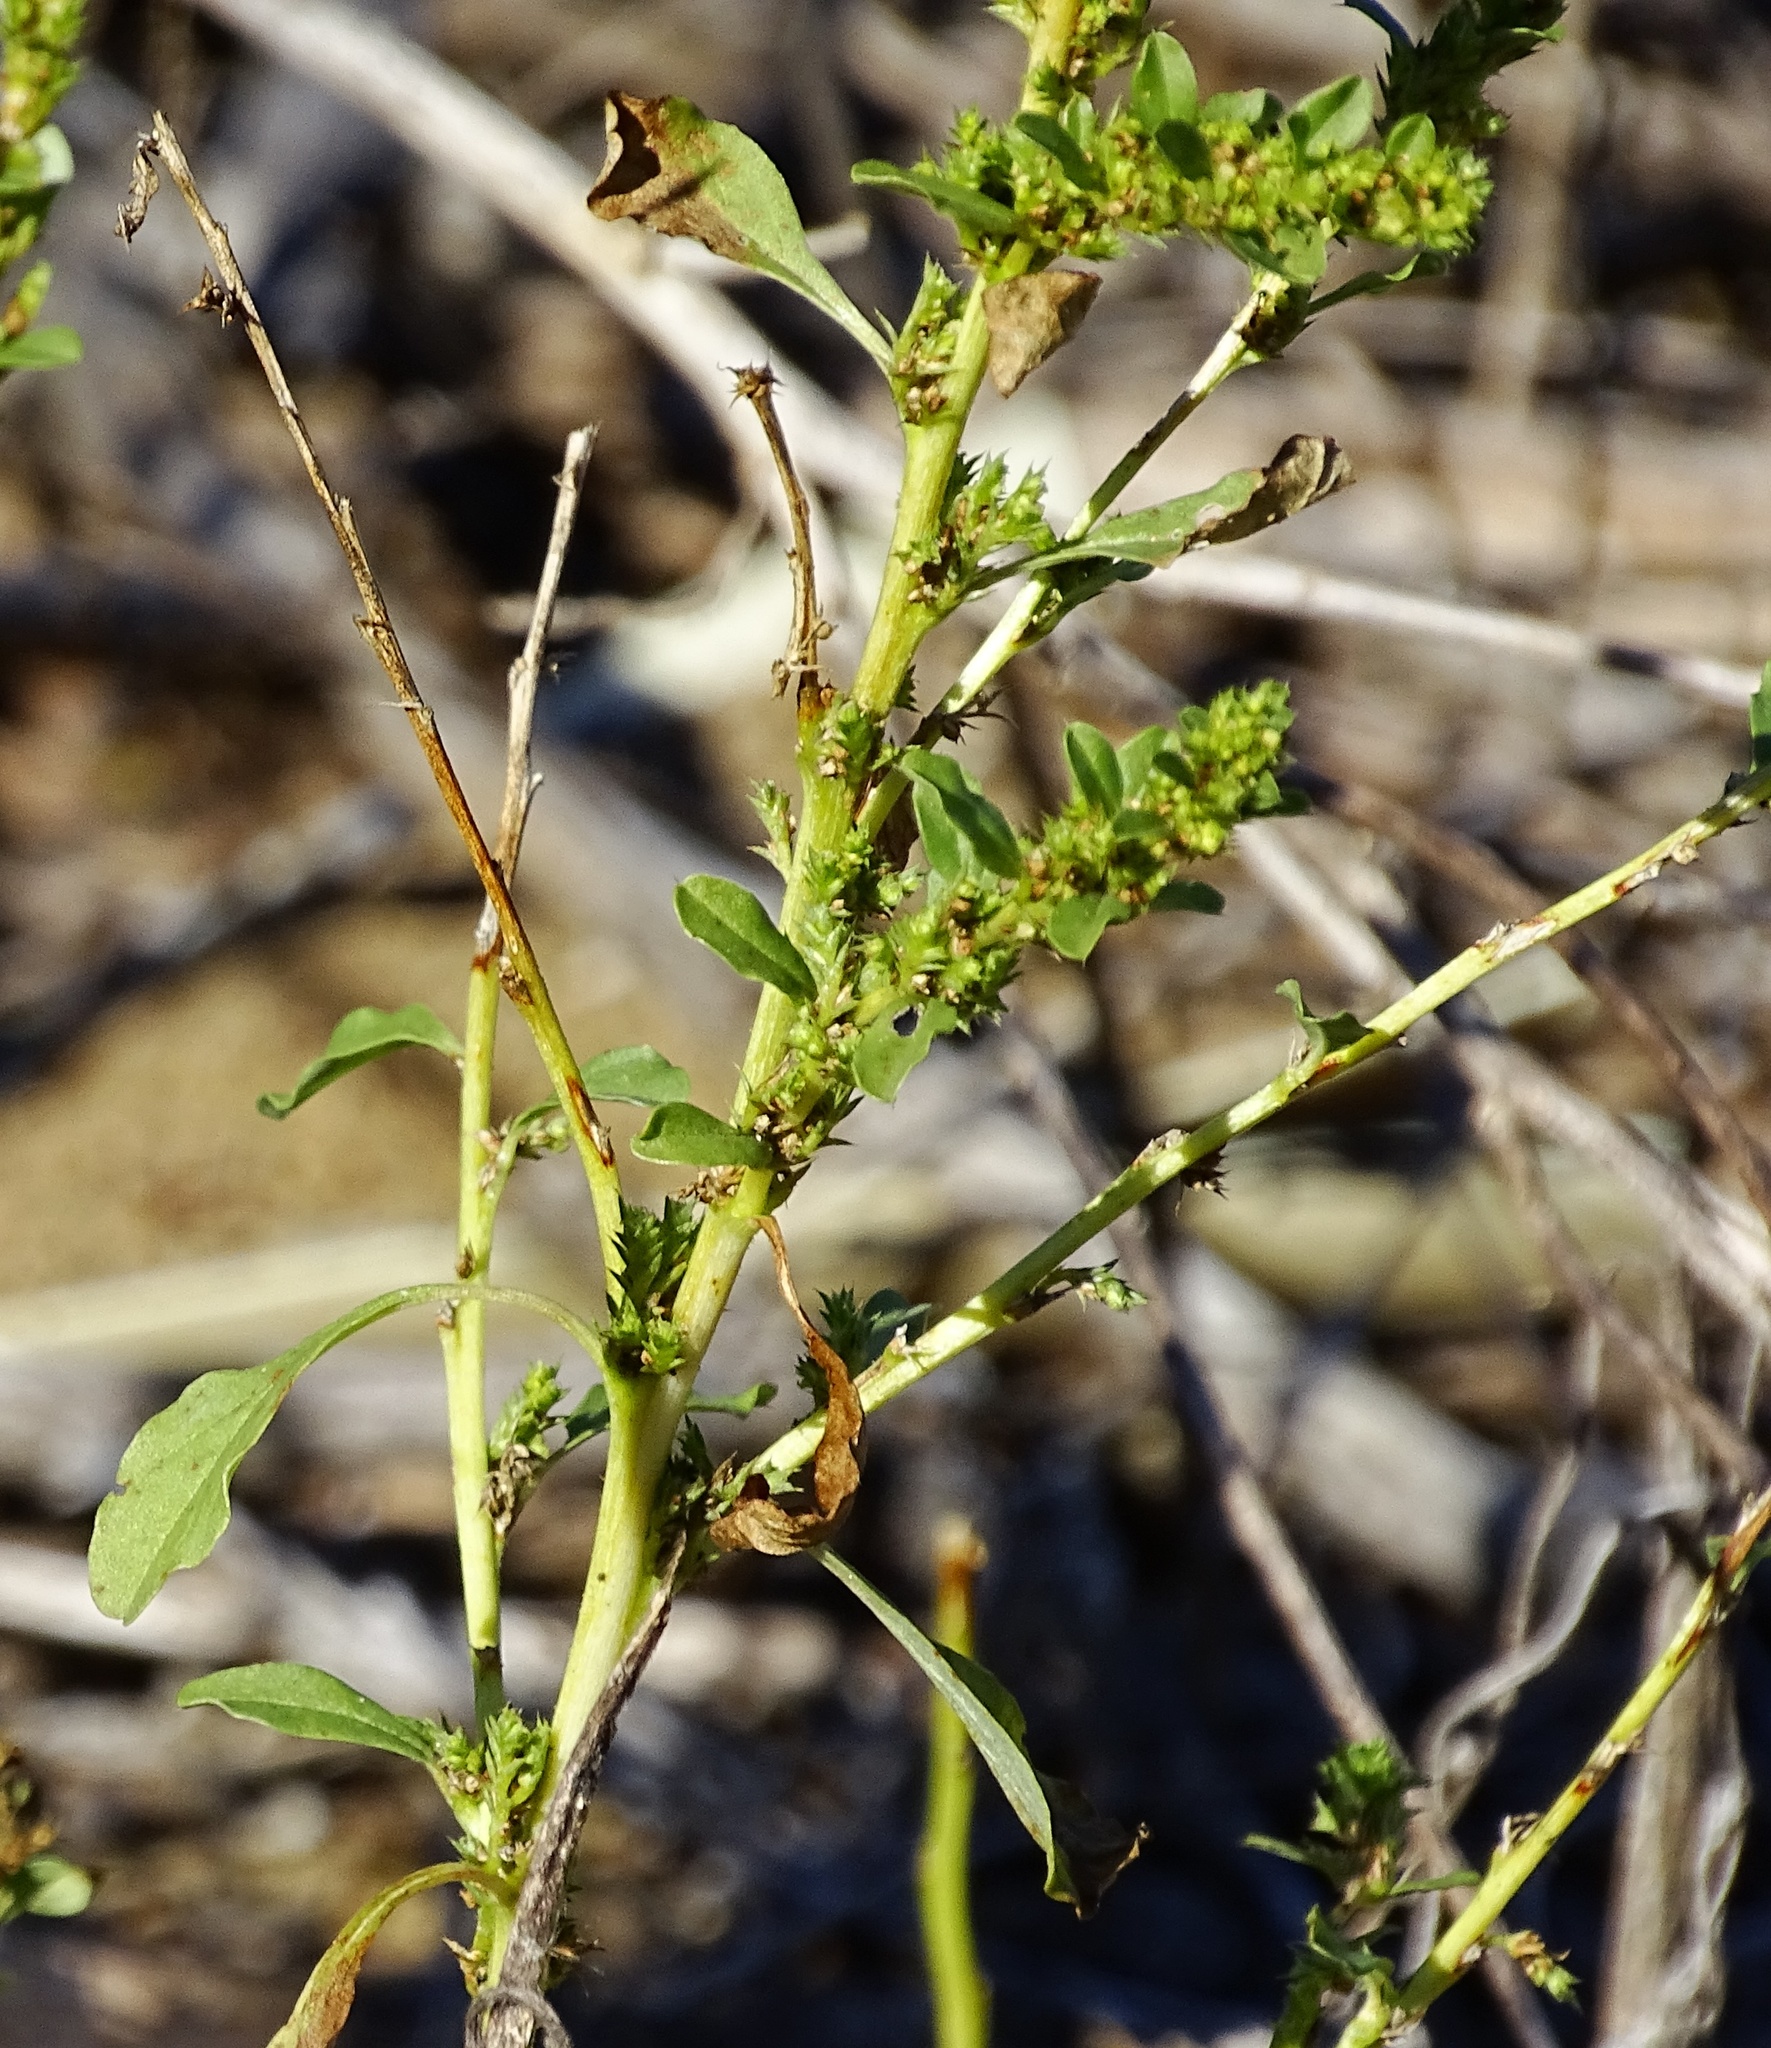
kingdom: Plantae
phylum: Tracheophyta
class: Magnoliopsida
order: Caryophyllales
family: Amaranthaceae
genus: Amaranthus
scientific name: Amaranthus albus
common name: White pigweed
